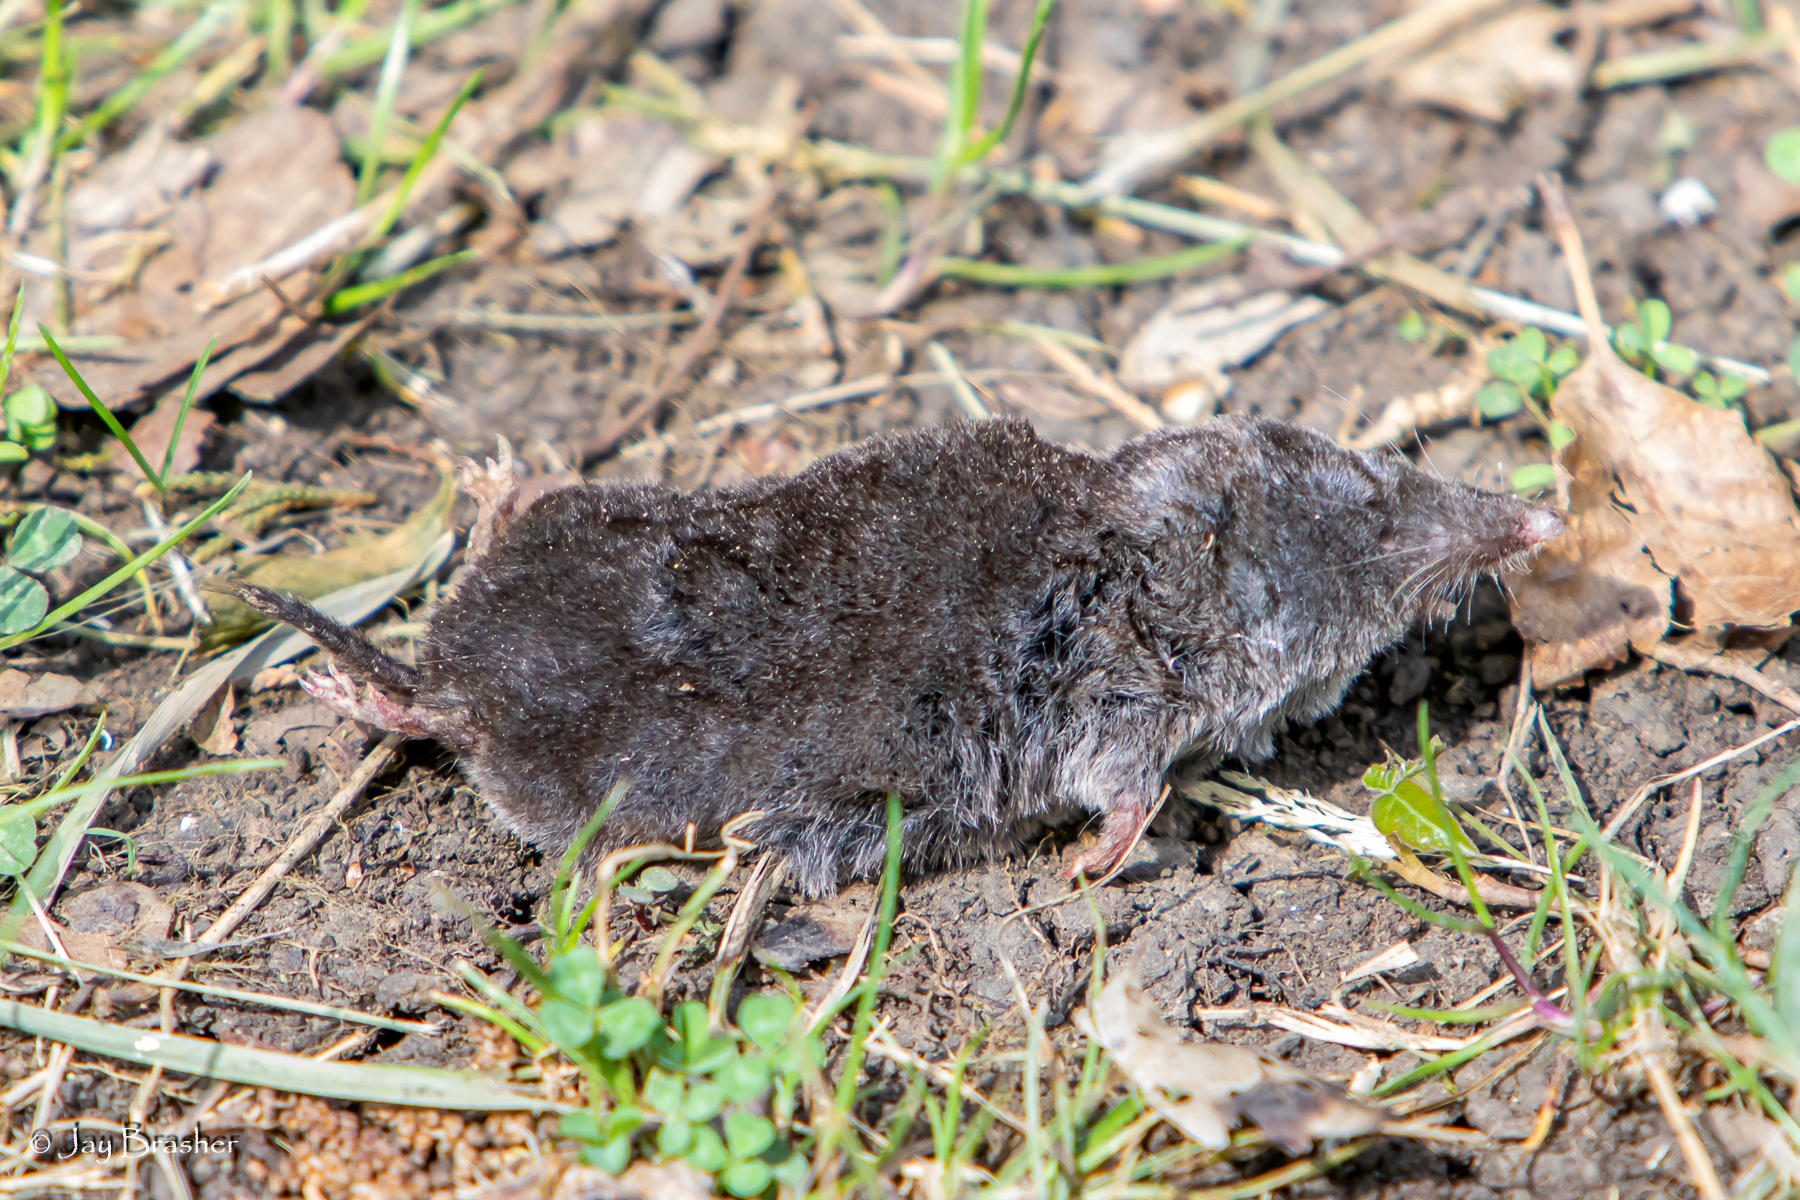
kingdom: Animalia
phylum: Chordata
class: Mammalia
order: Soricomorpha
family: Soricidae
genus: Blarina
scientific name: Blarina brevicauda
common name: Northern short-tailed shrew
